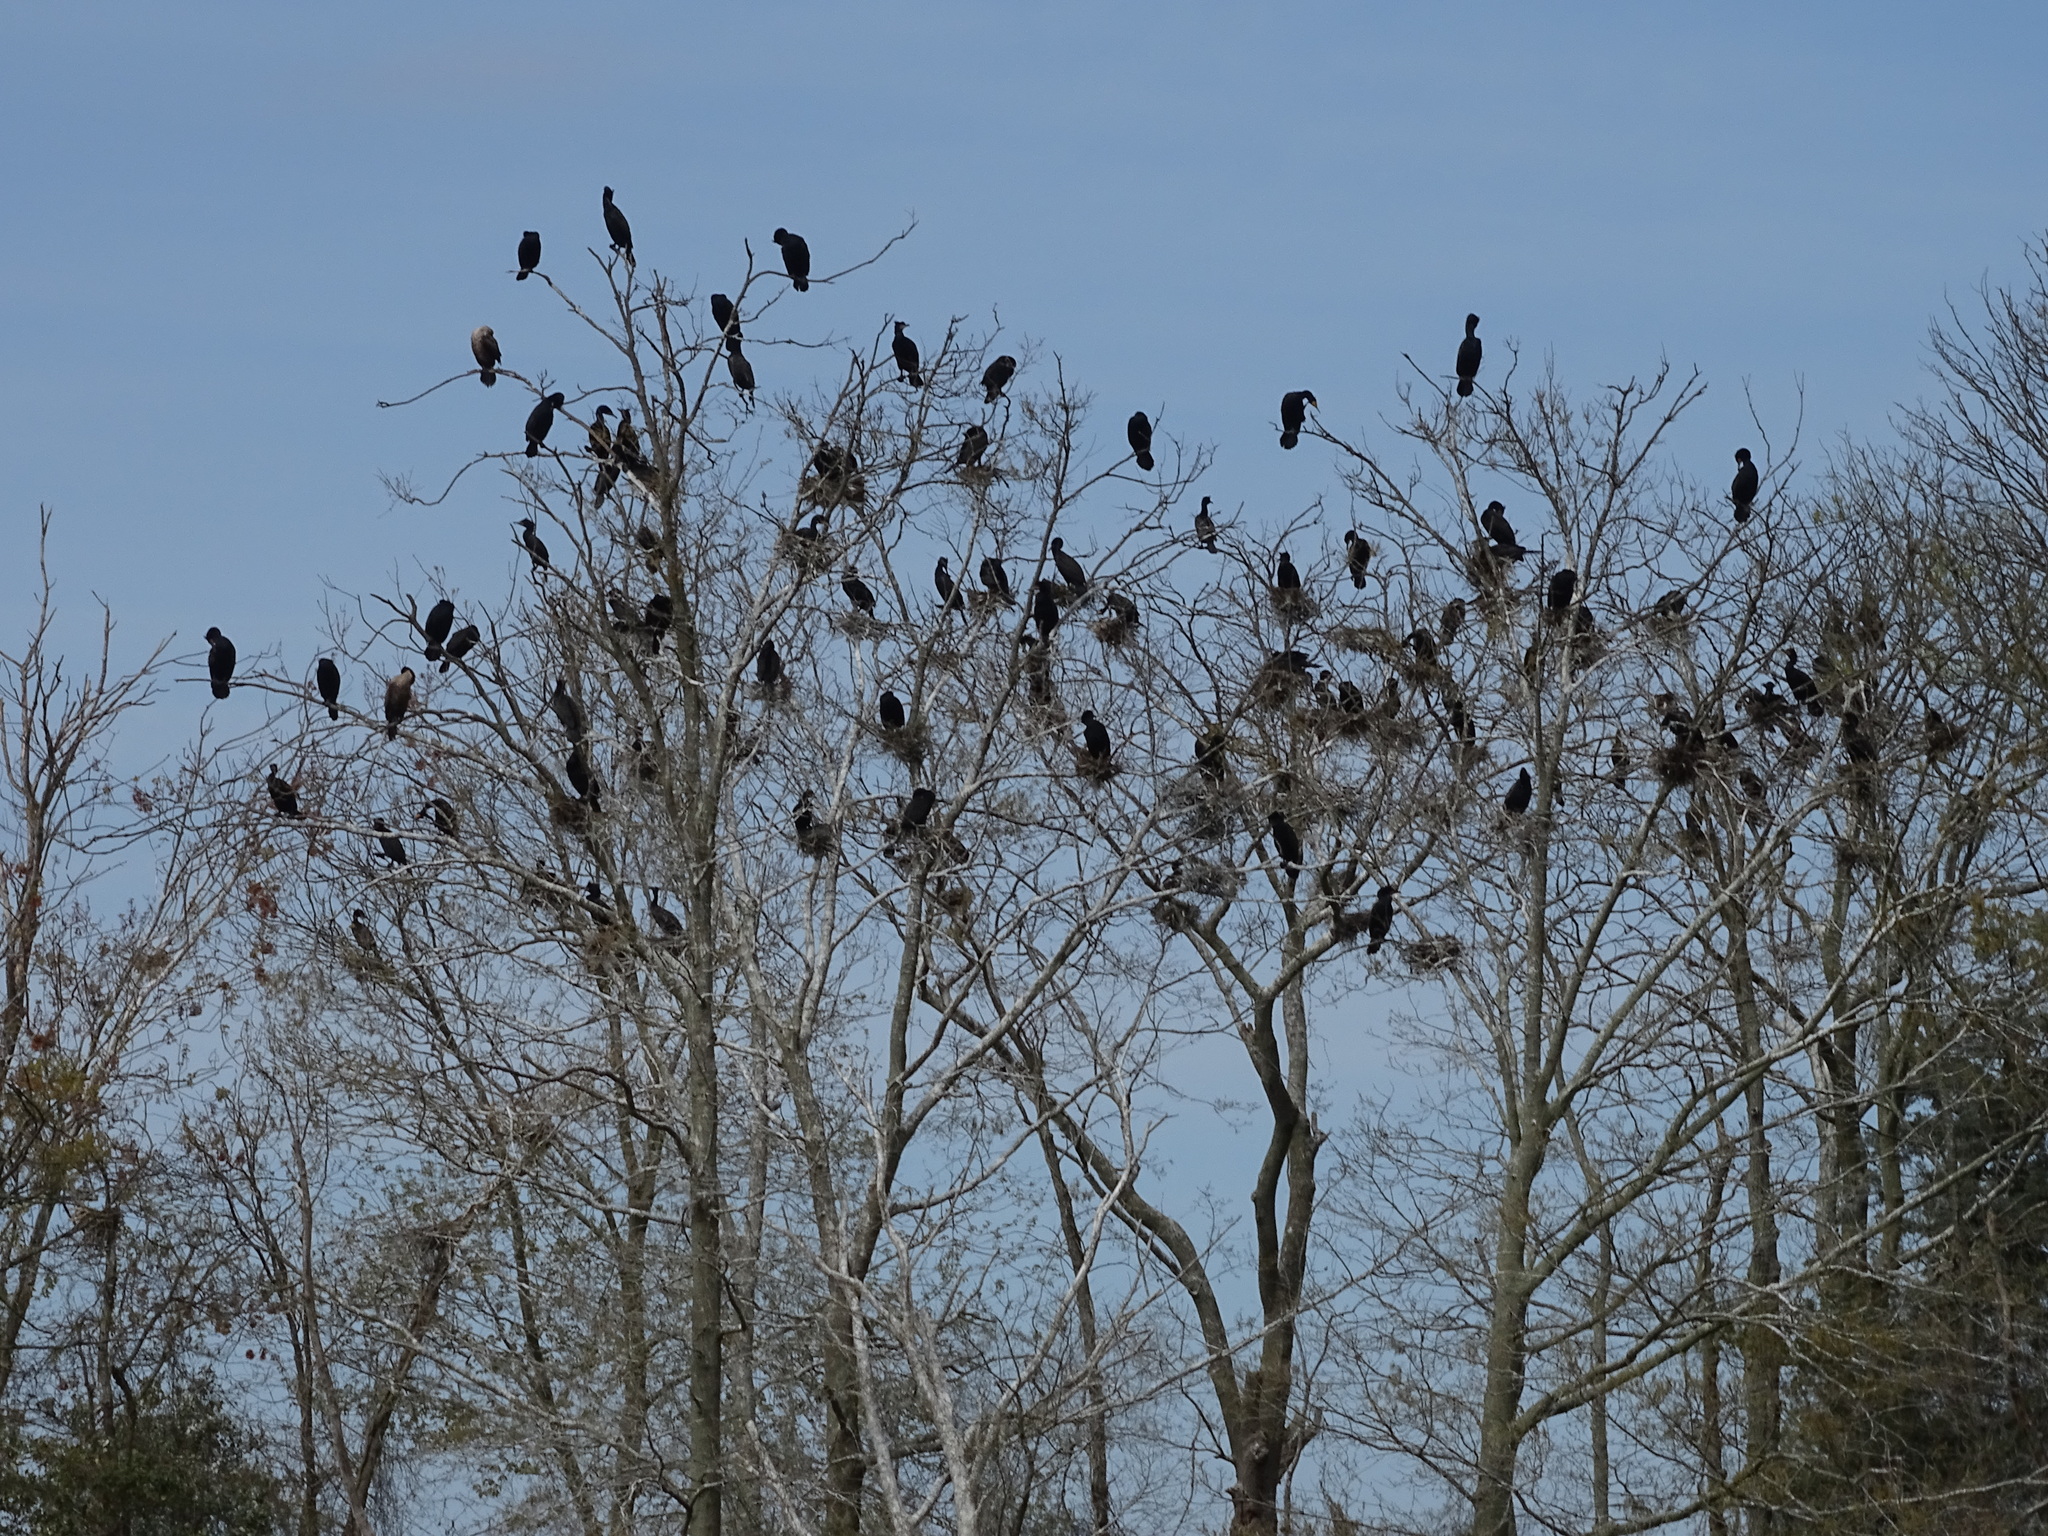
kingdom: Animalia
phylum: Chordata
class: Aves
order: Suliformes
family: Phalacrocoracidae
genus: Phalacrocorax
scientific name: Phalacrocorax auritus
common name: Double-crested cormorant
